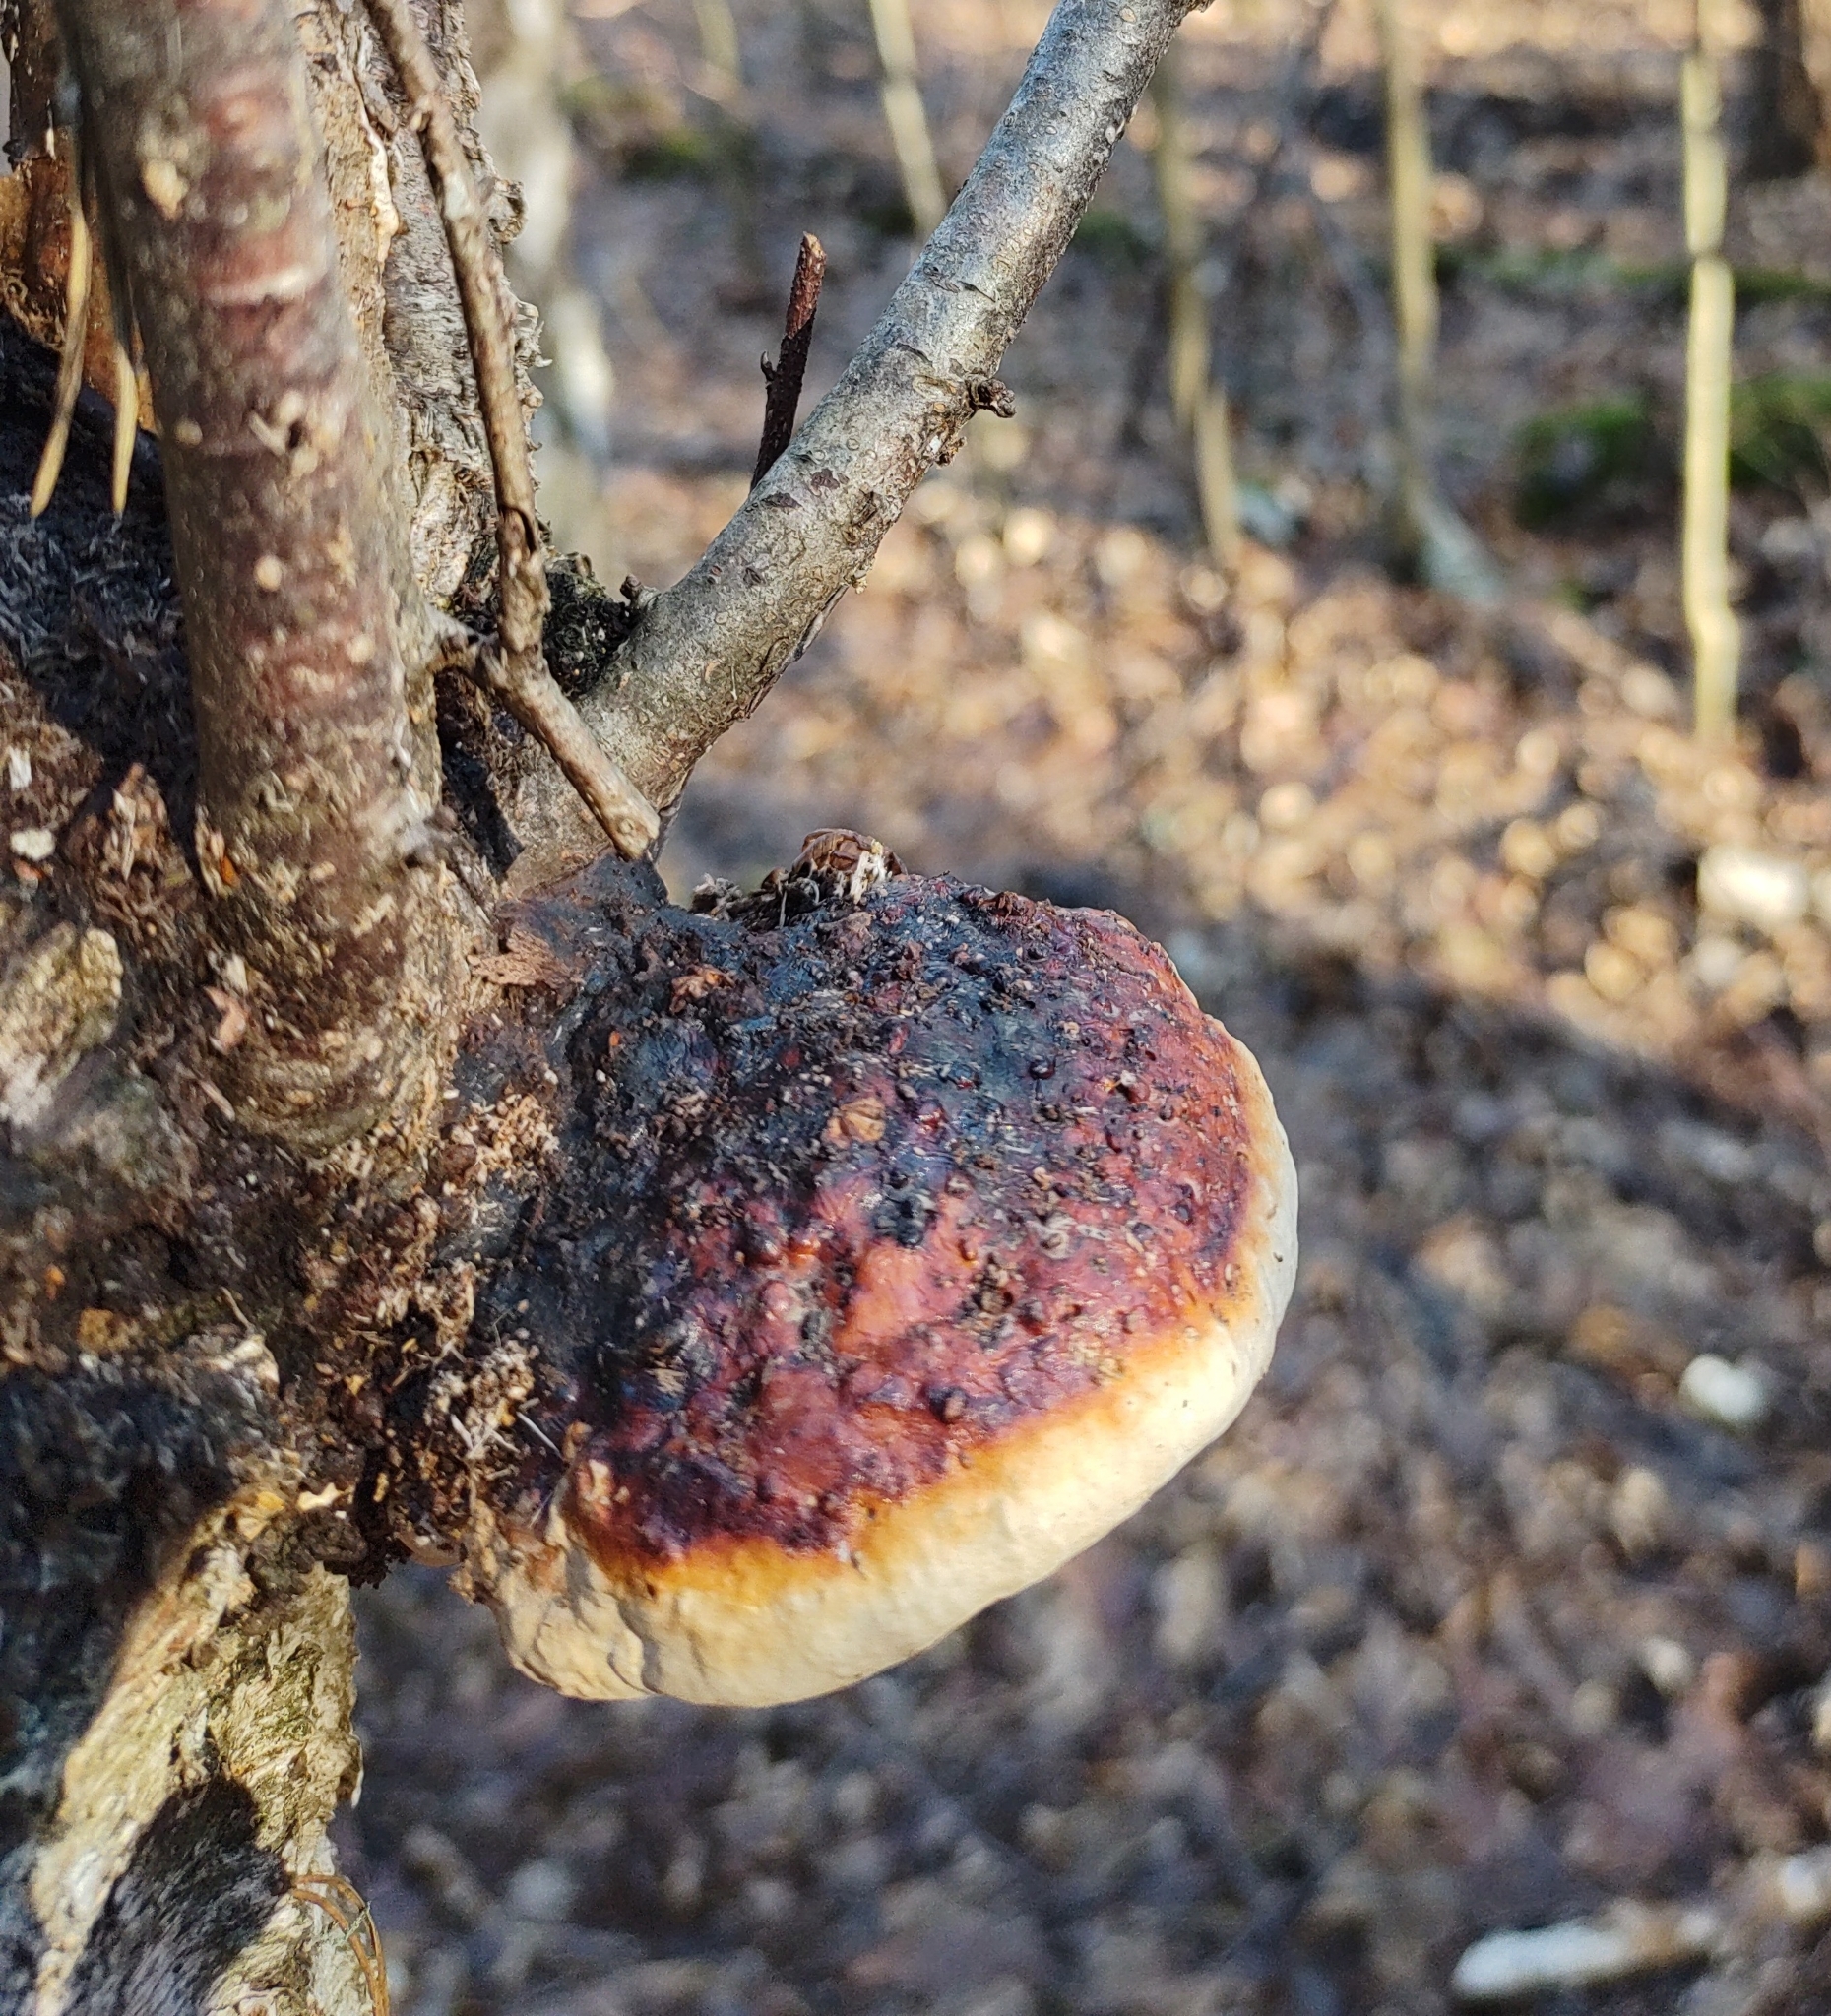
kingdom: Fungi
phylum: Basidiomycota
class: Agaricomycetes
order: Polyporales
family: Fomitopsidaceae
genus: Fomitopsis
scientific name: Fomitopsis pinicola
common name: Red-belted bracket
